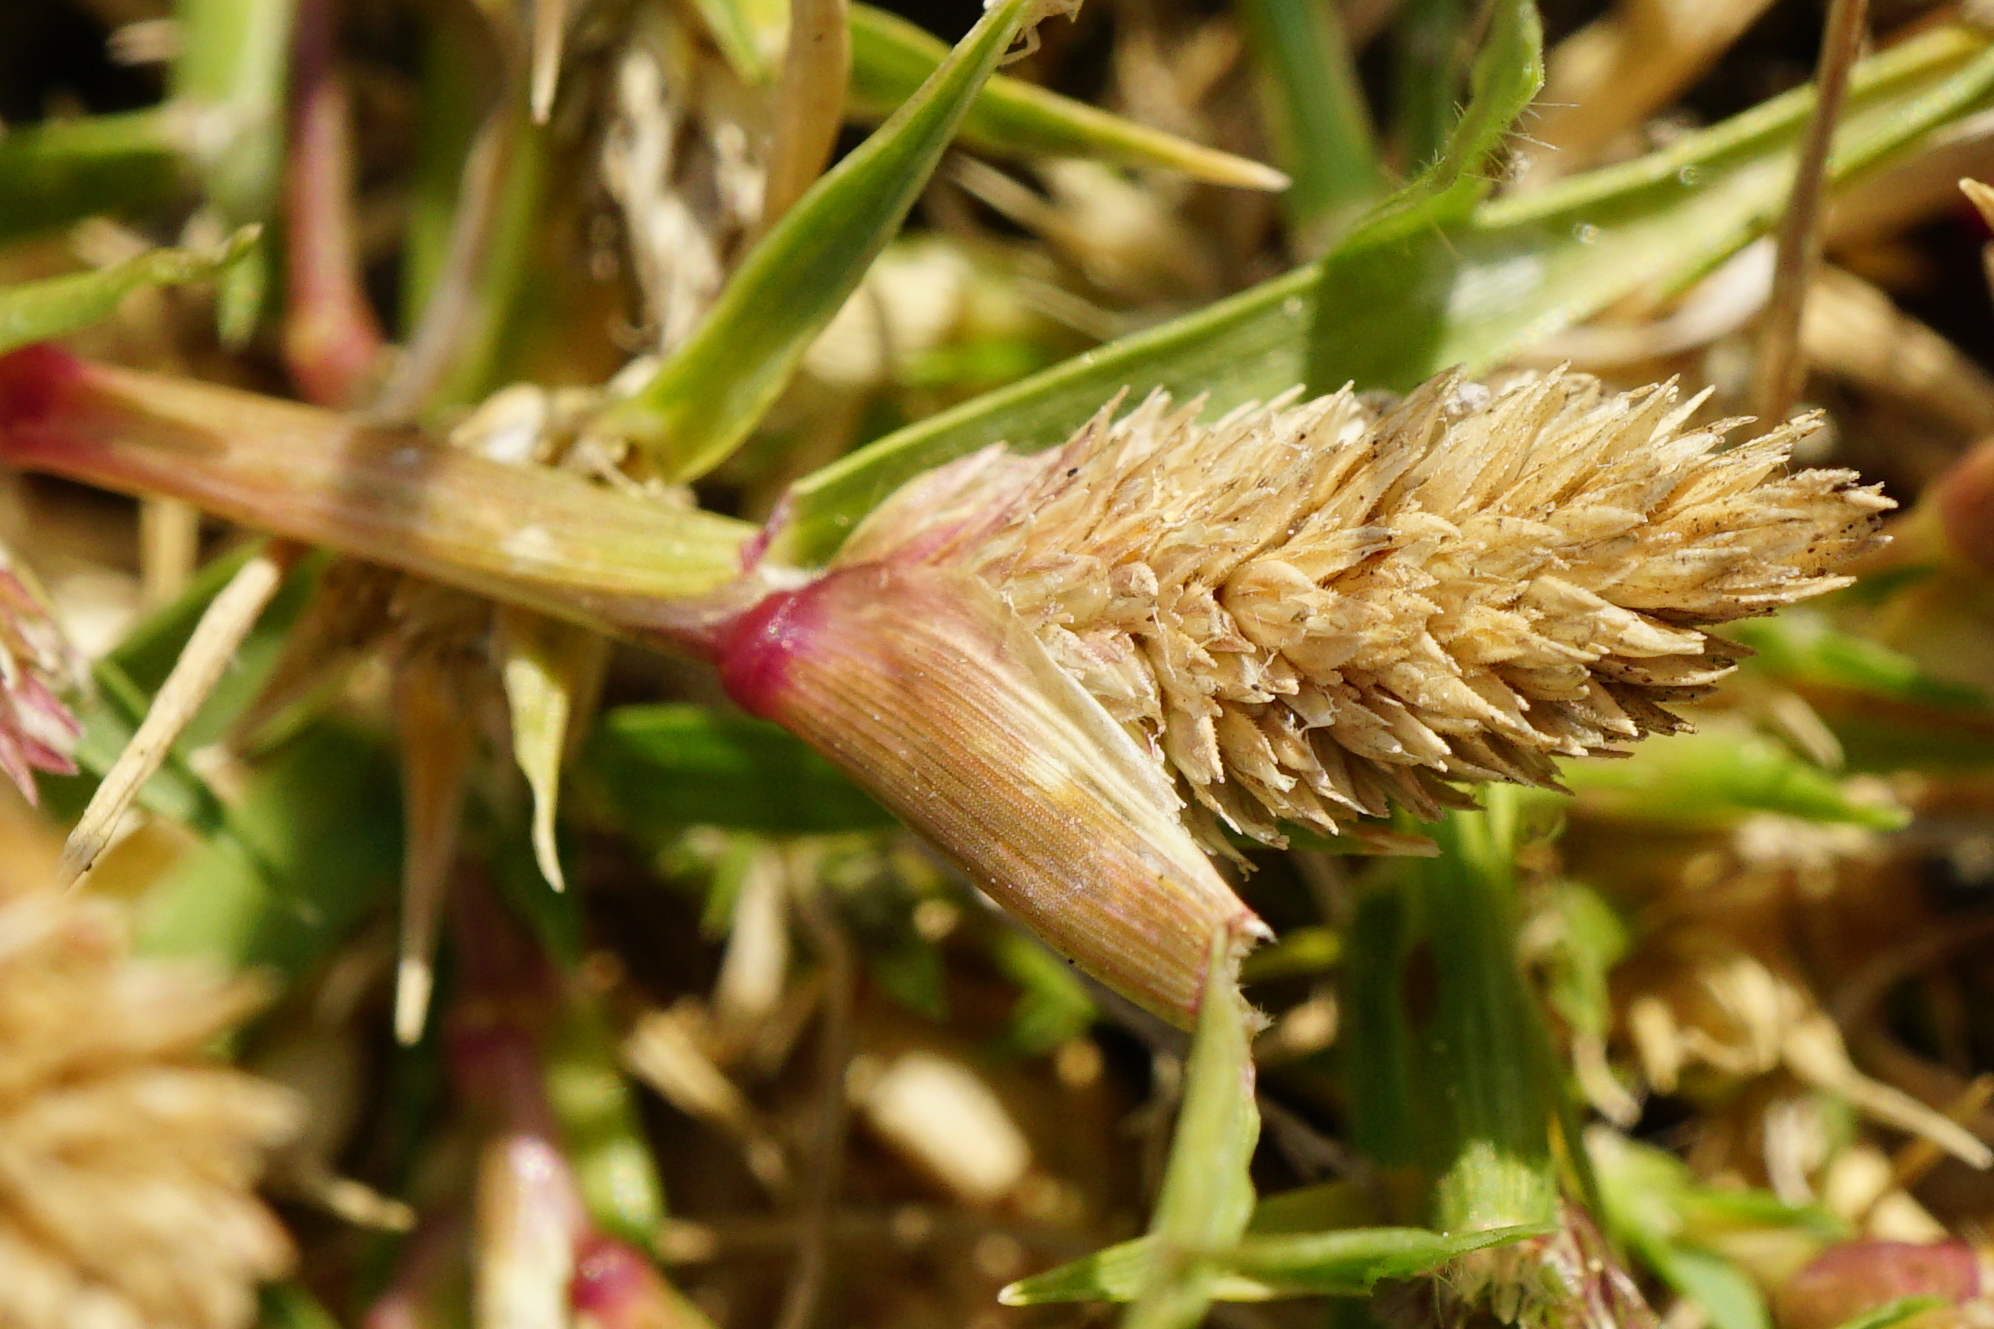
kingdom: Plantae
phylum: Tracheophyta
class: Liliopsida
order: Poales
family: Poaceae
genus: Sporobolus
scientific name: Sporobolus schoenoides
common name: Rush-like timothy
